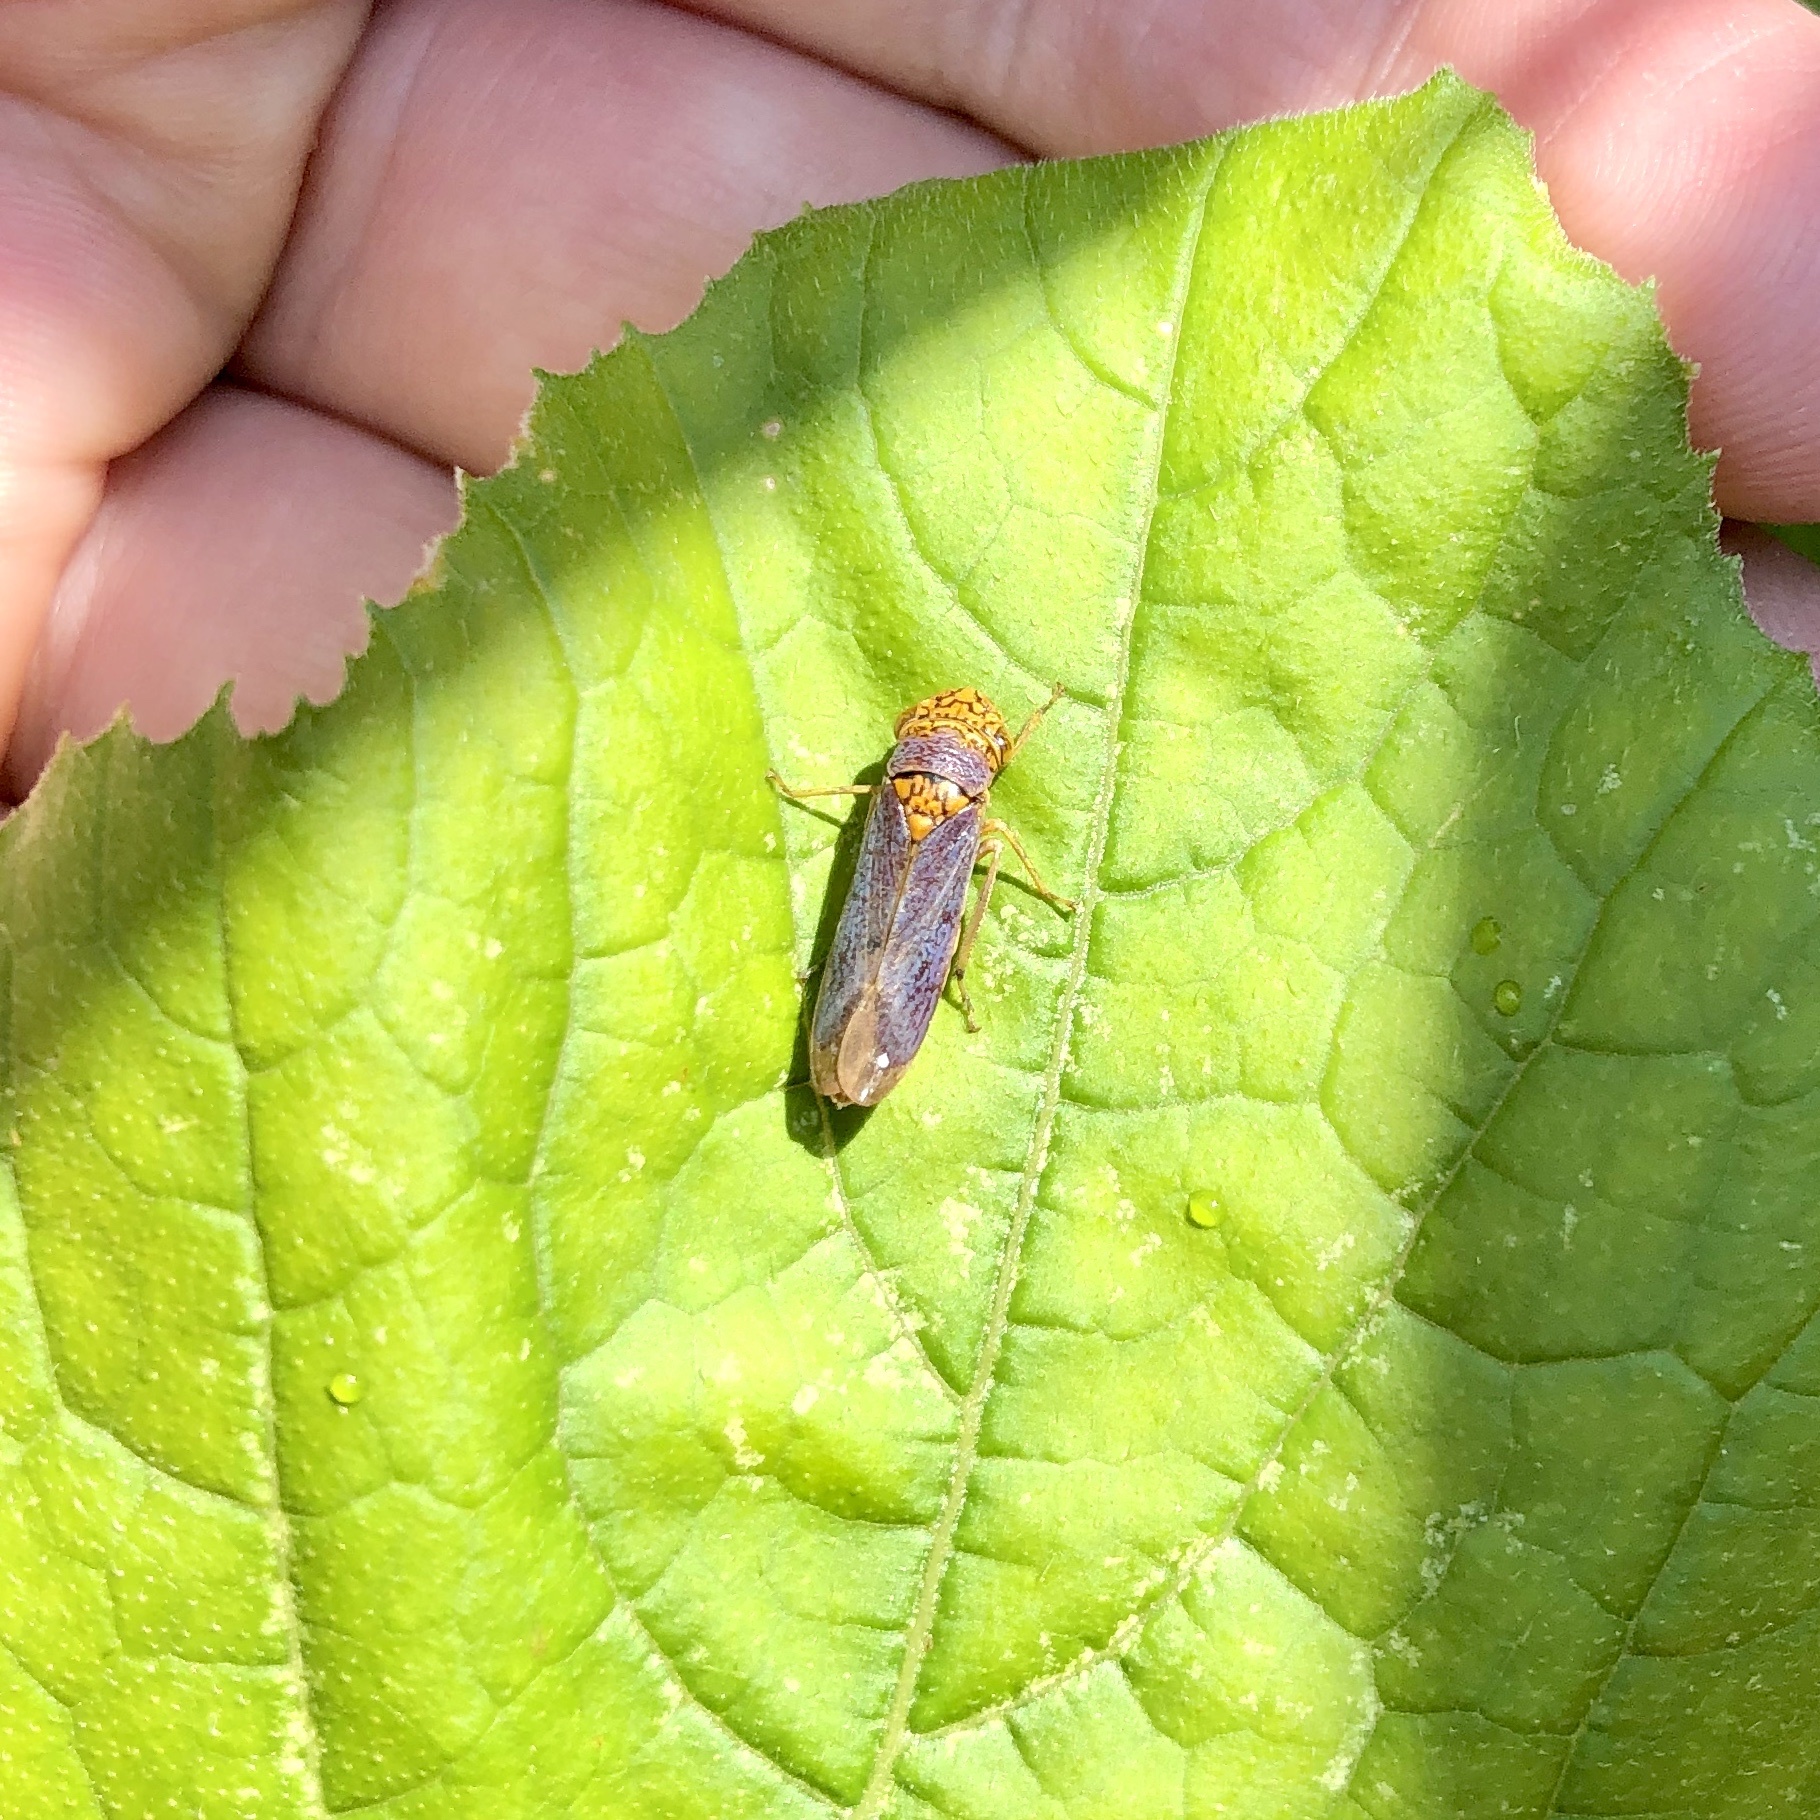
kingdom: Animalia
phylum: Arthropoda
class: Insecta
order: Hemiptera
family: Cicadellidae
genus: Oncometopia
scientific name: Oncometopia orbona
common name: Broad-headed sharpshooter
